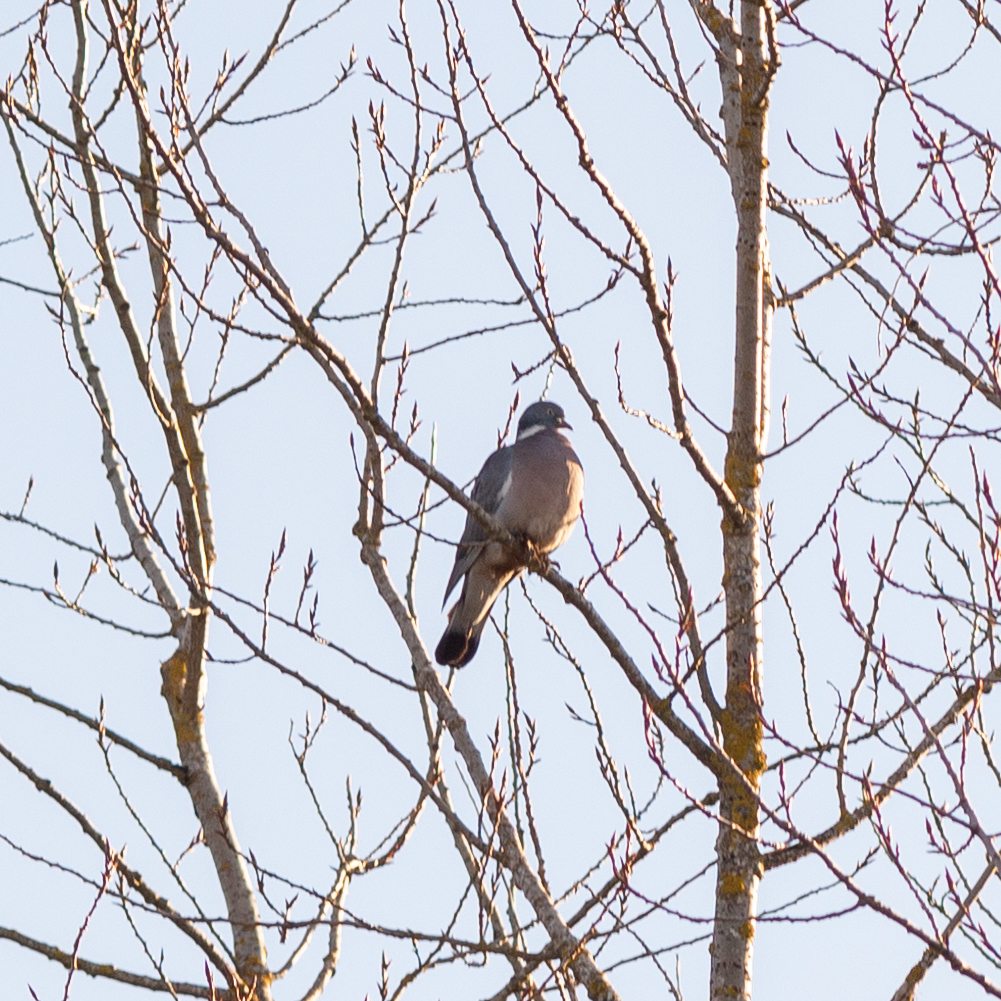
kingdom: Animalia
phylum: Chordata
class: Aves
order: Columbiformes
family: Columbidae
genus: Columba
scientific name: Columba palumbus
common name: Common wood pigeon
